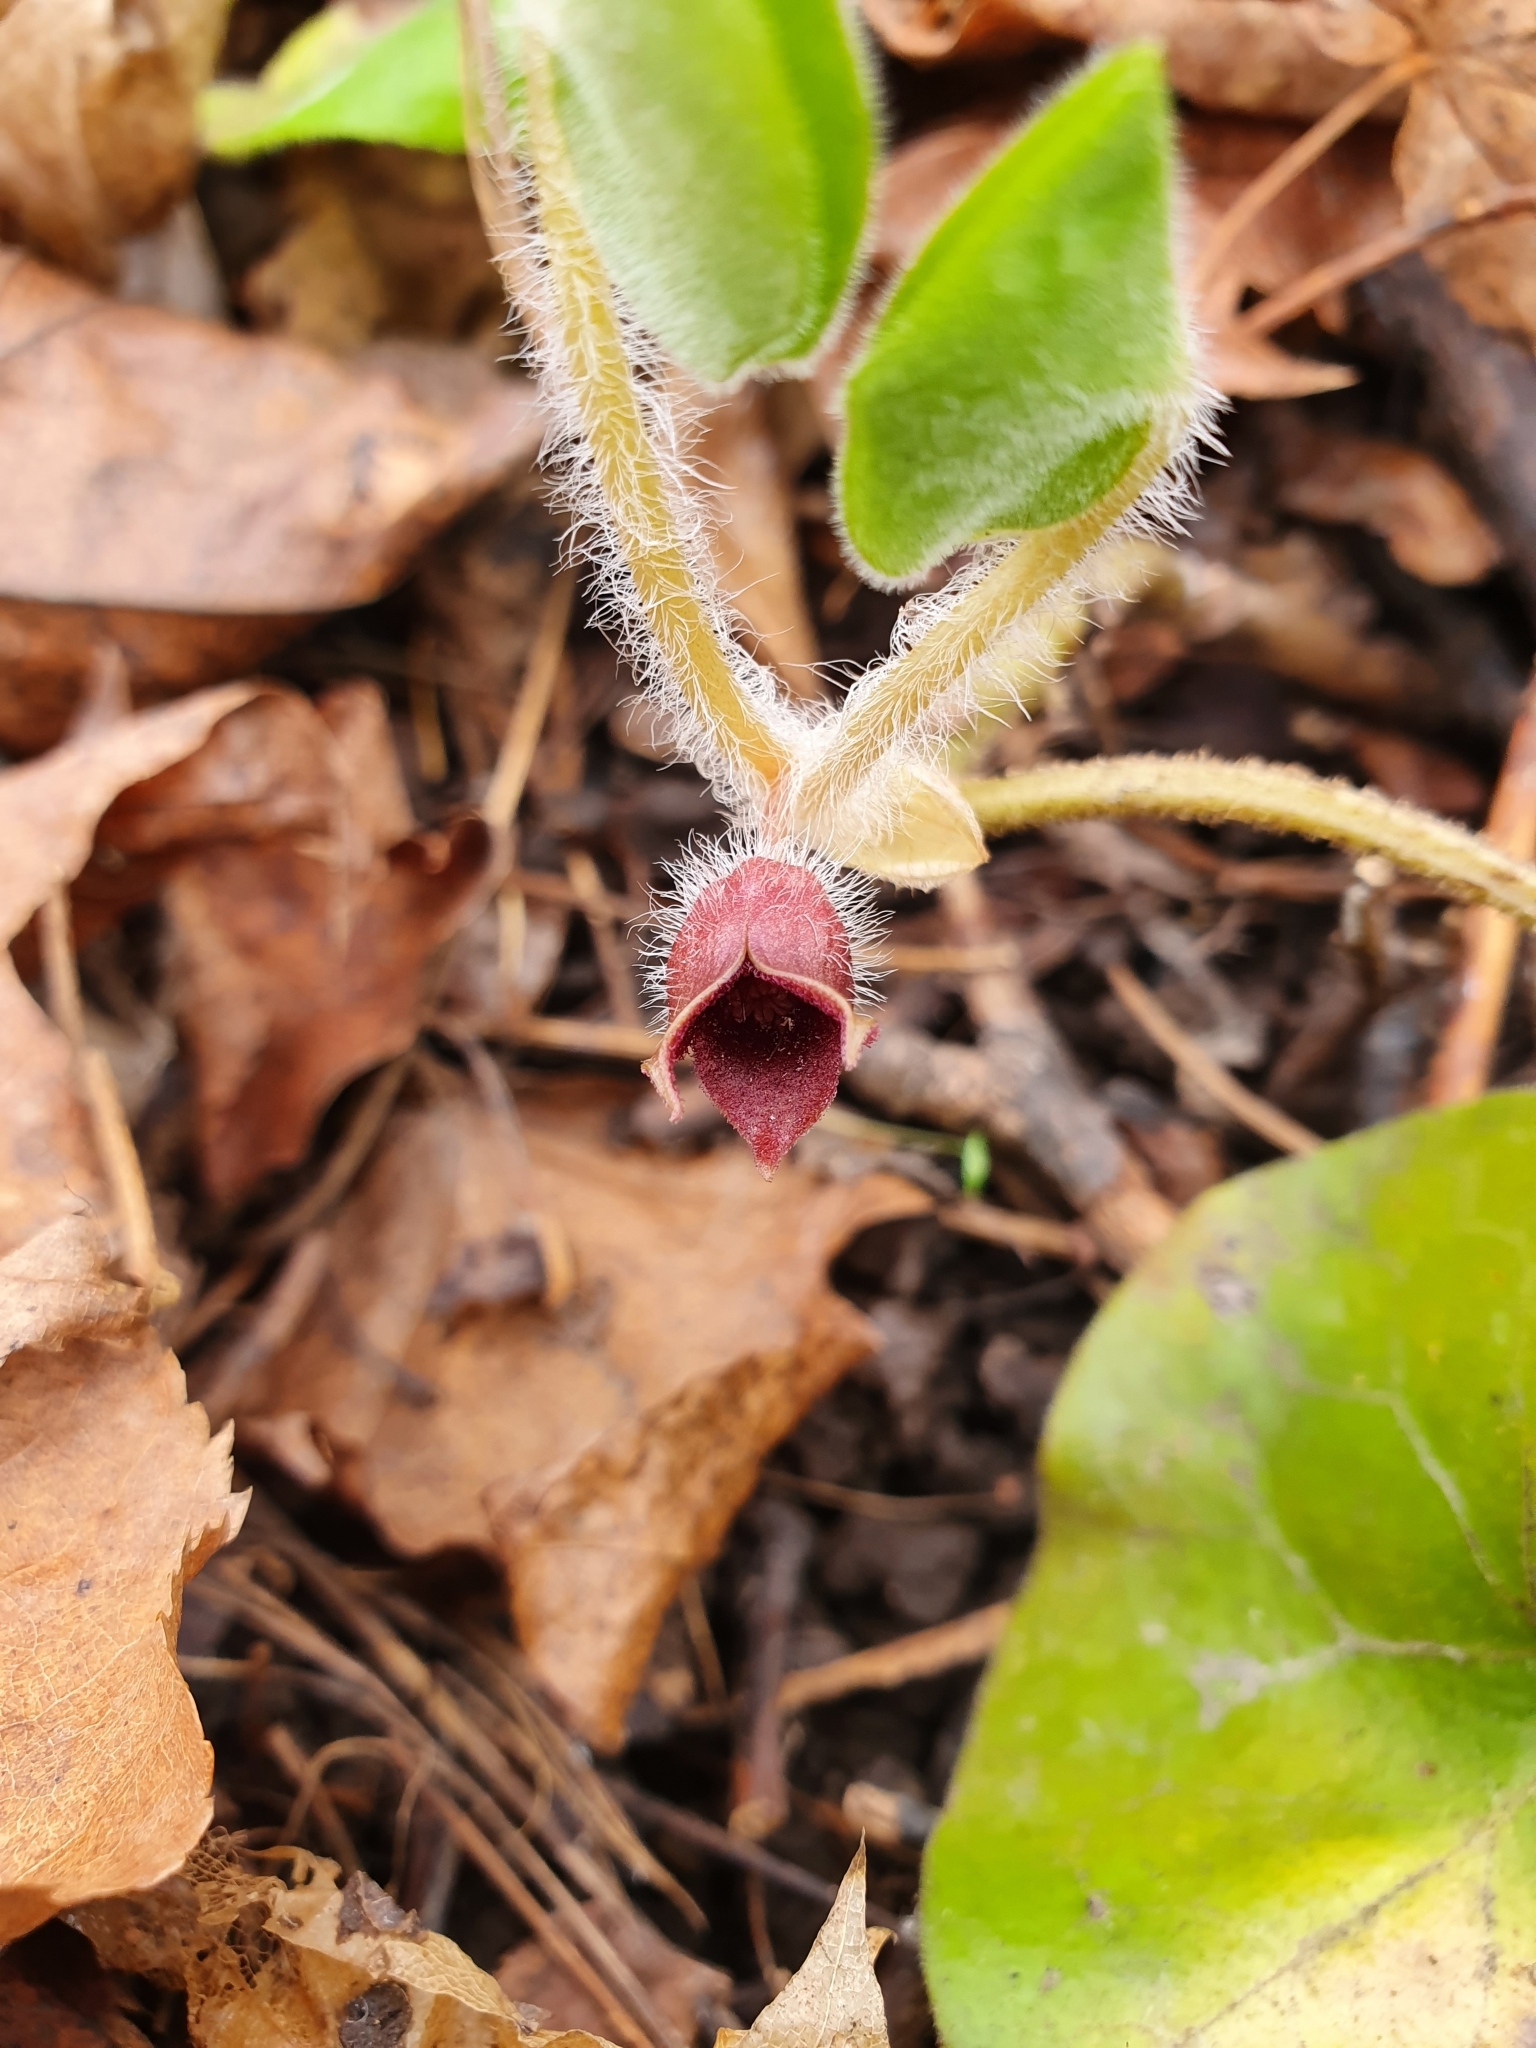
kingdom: Plantae
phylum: Tracheophyta
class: Magnoliopsida
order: Piperales
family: Aristolochiaceae
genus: Asarum
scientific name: Asarum europaeum
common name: Asarabacca
